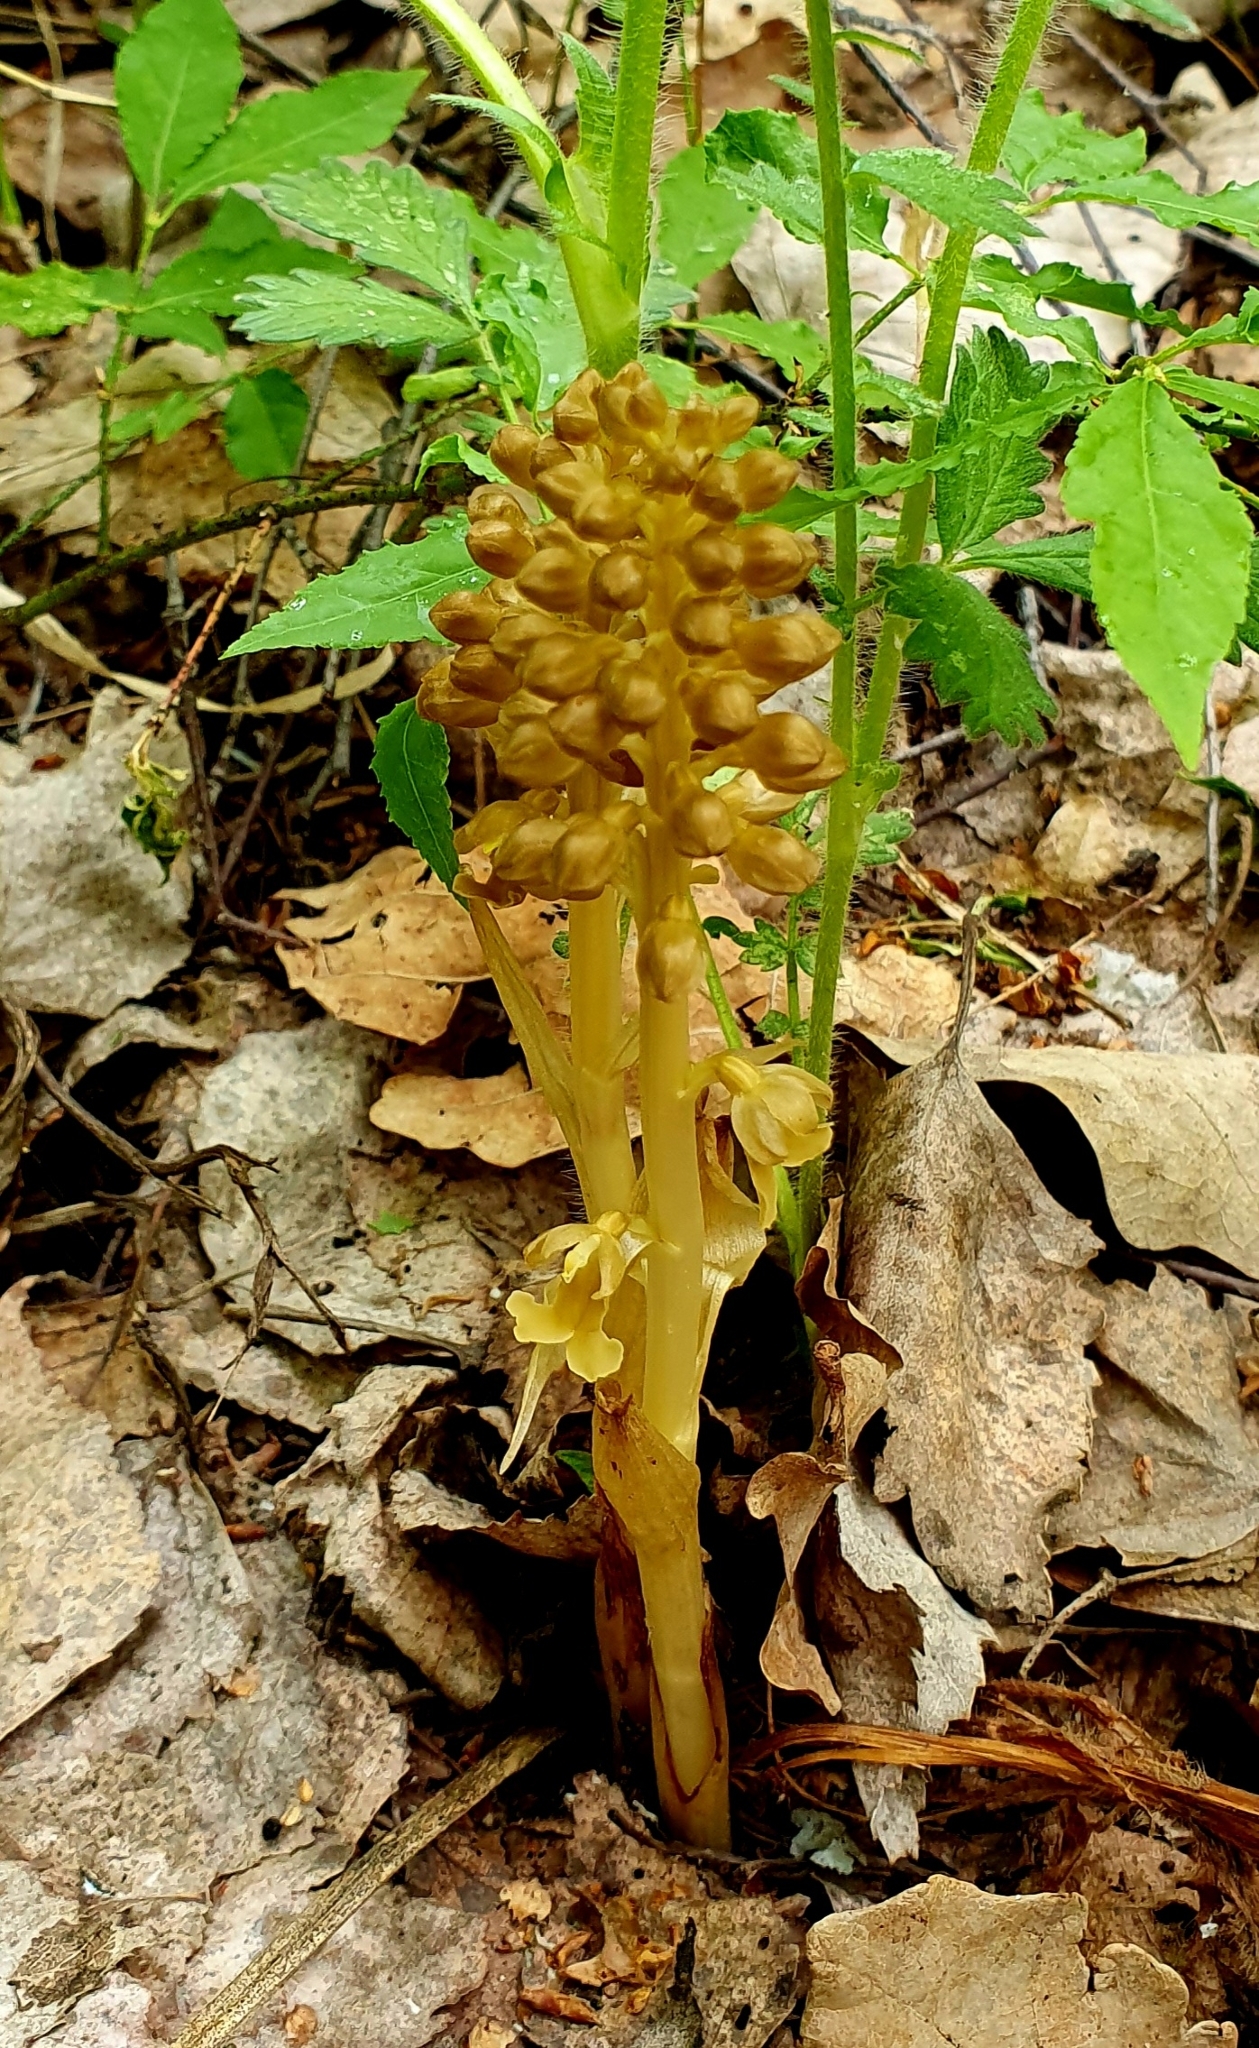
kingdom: Plantae
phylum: Tracheophyta
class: Liliopsida
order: Asparagales
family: Orchidaceae
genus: Neottia
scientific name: Neottia nidus-avis
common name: Bird's-nest orchid
